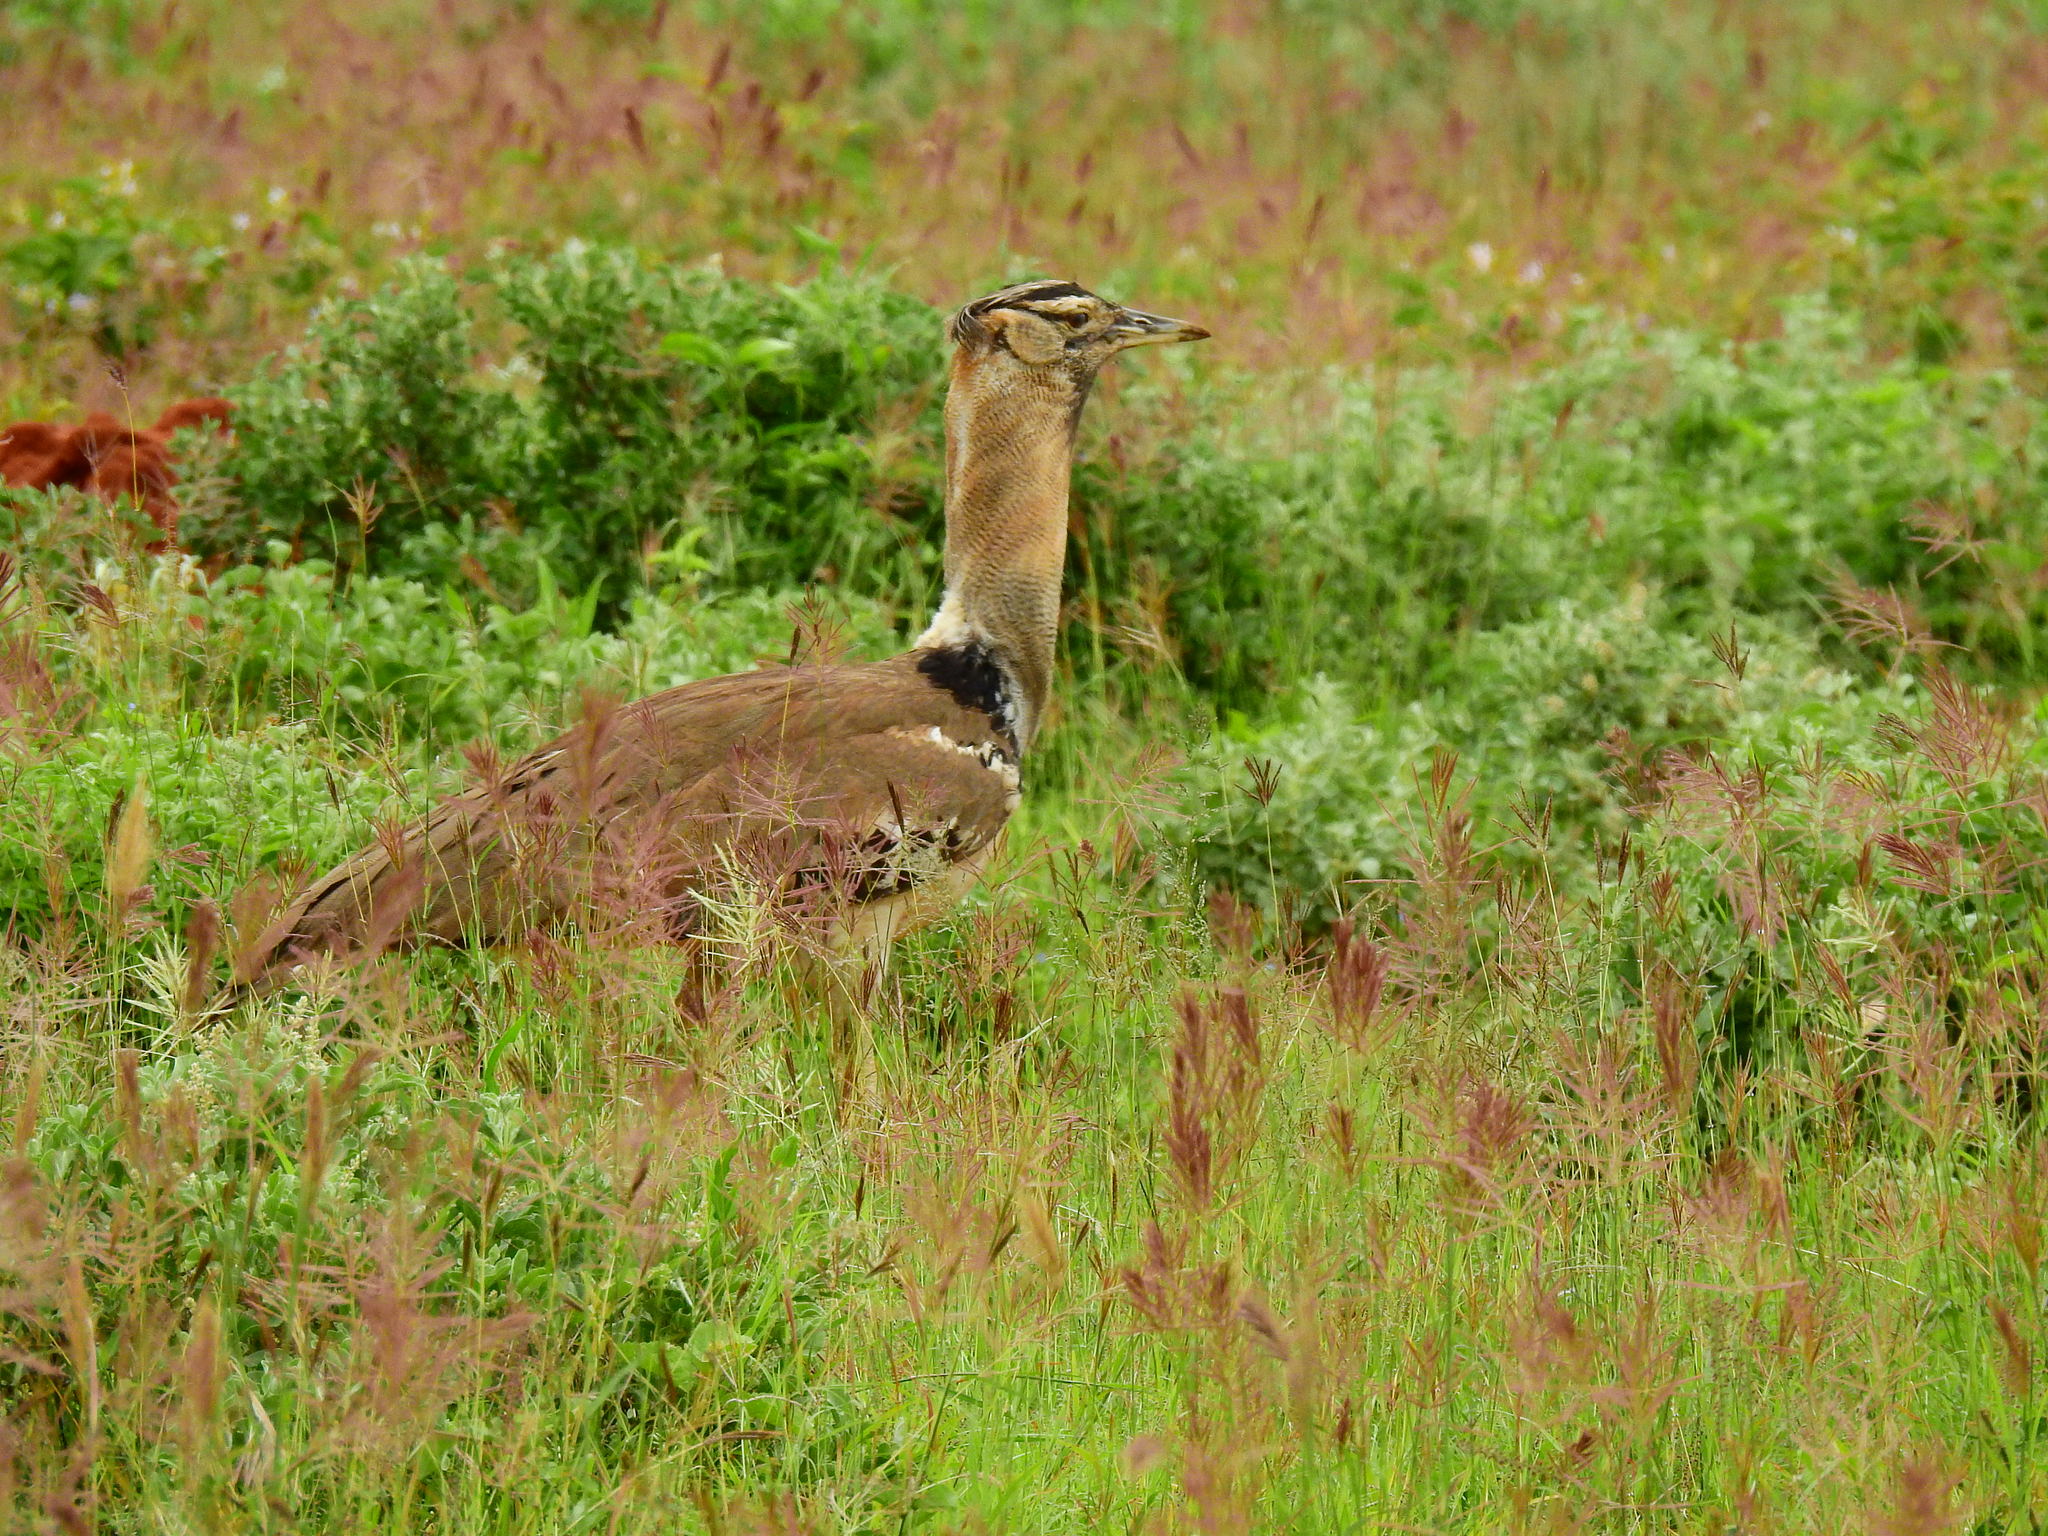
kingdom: Animalia
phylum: Chordata
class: Aves
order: Otidiformes
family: Otididae
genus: Ardeotis
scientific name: Ardeotis kori
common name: Kori bustard
